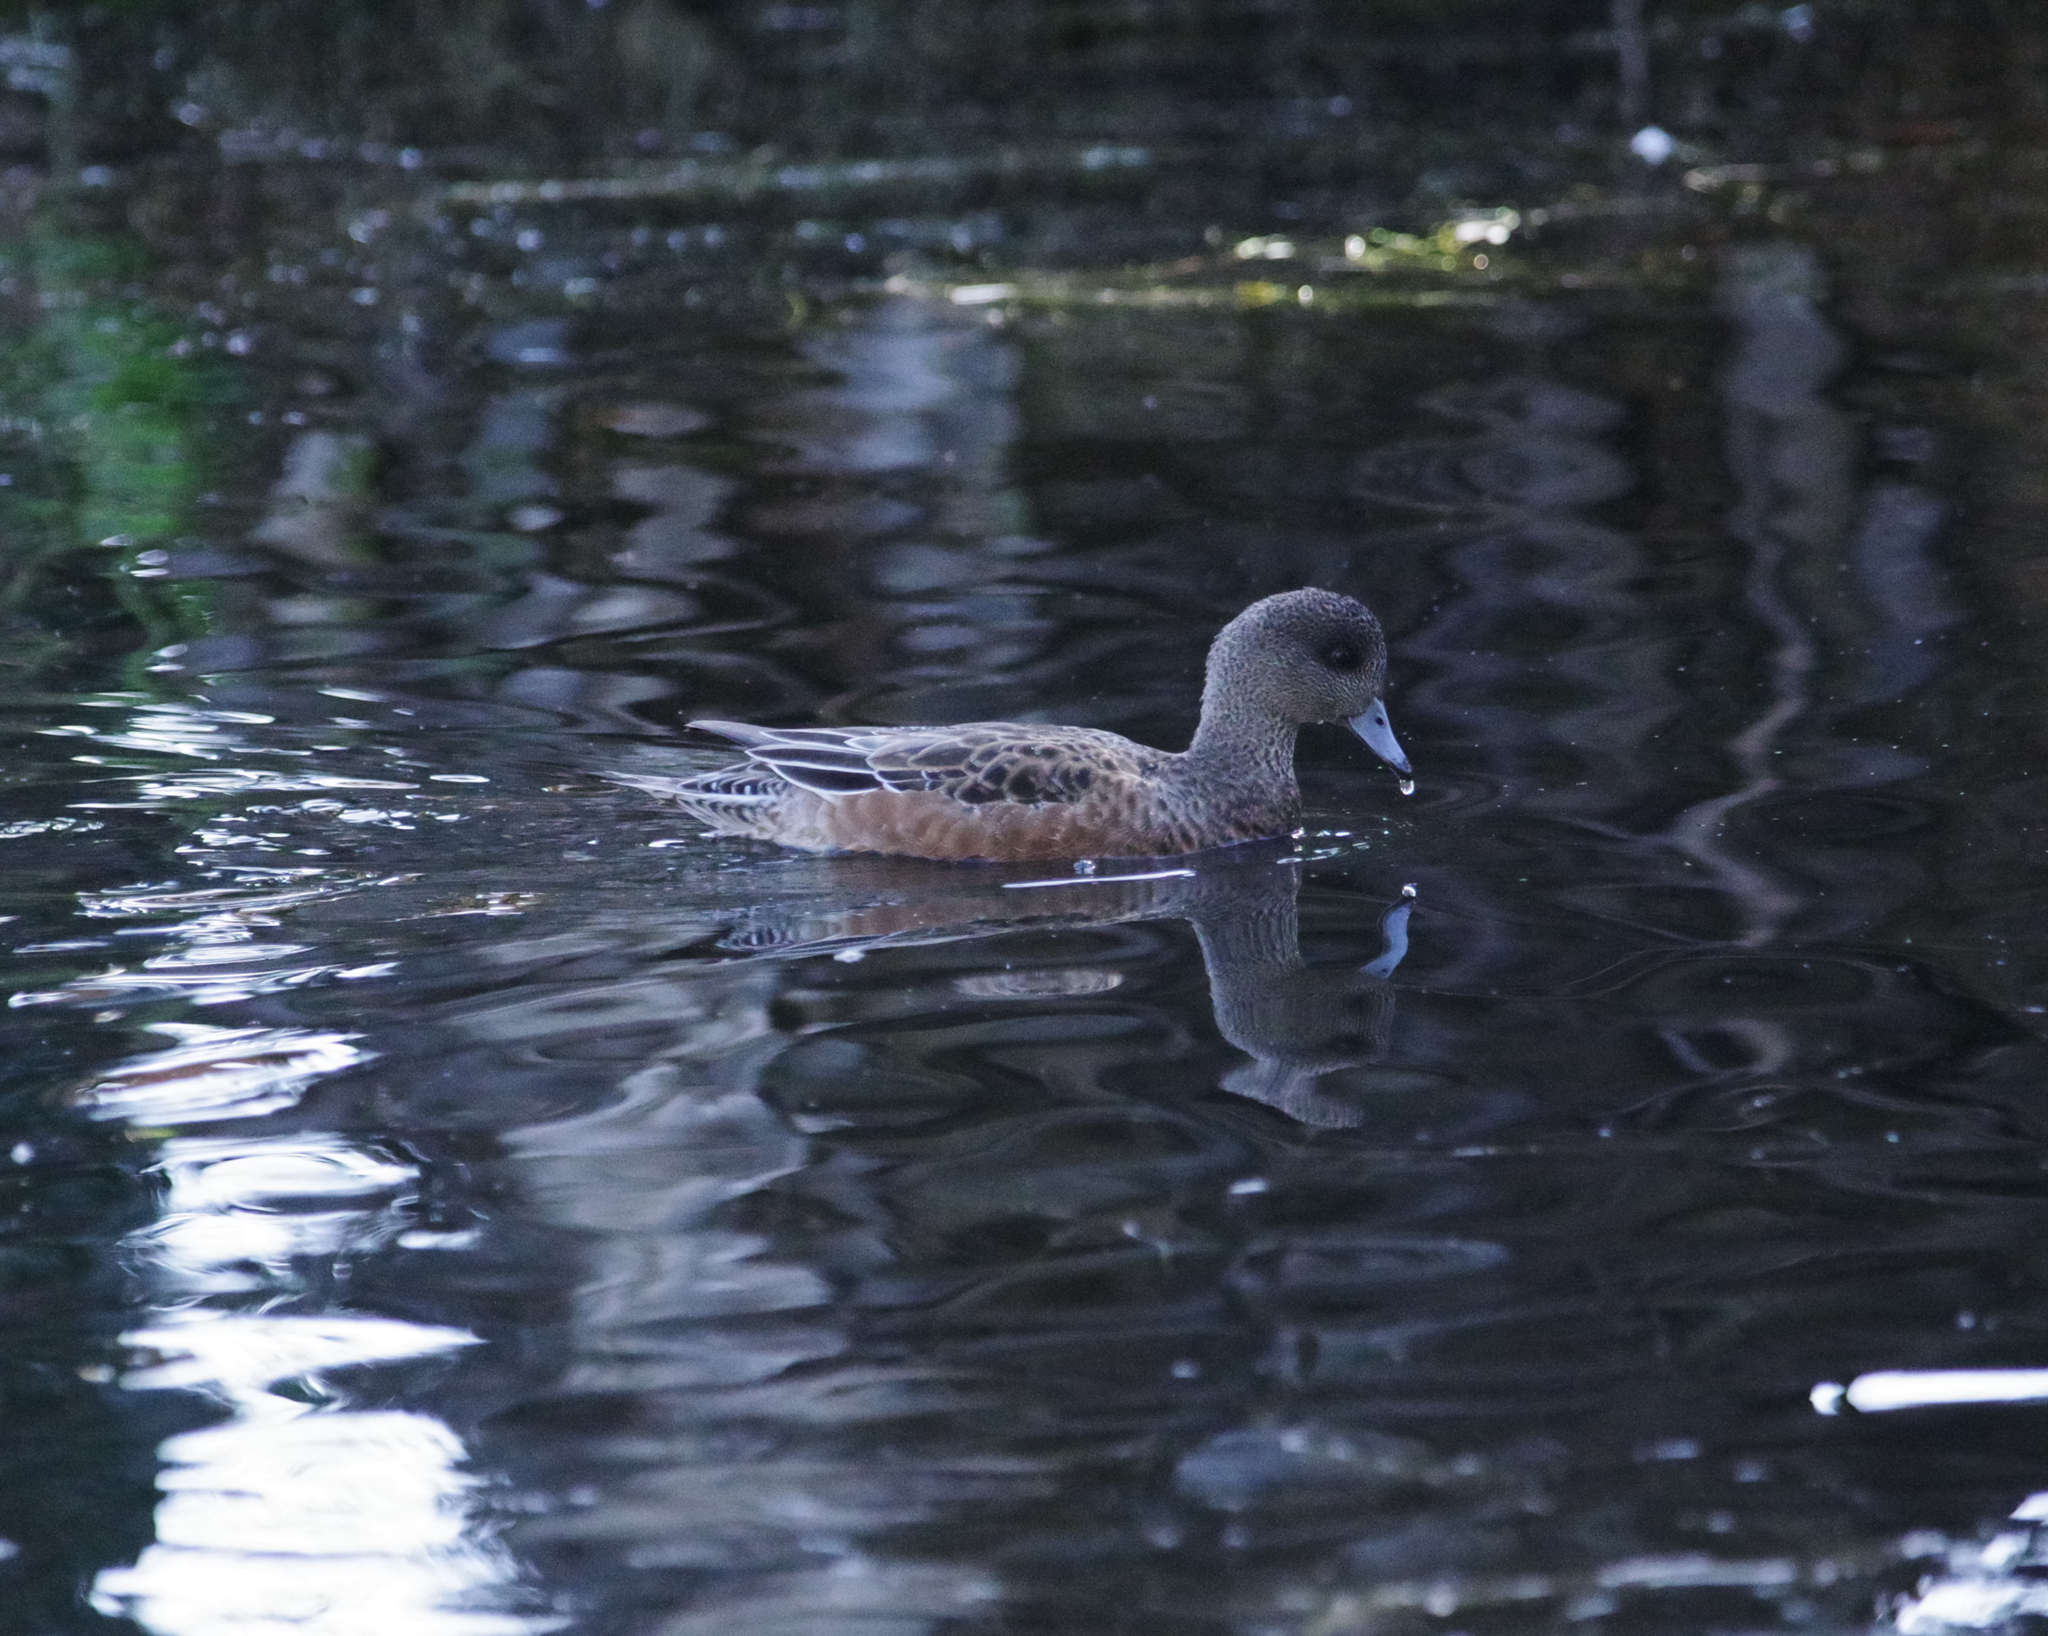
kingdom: Animalia
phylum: Chordata
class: Aves
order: Anseriformes
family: Anatidae
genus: Mareca
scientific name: Mareca americana
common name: American wigeon
